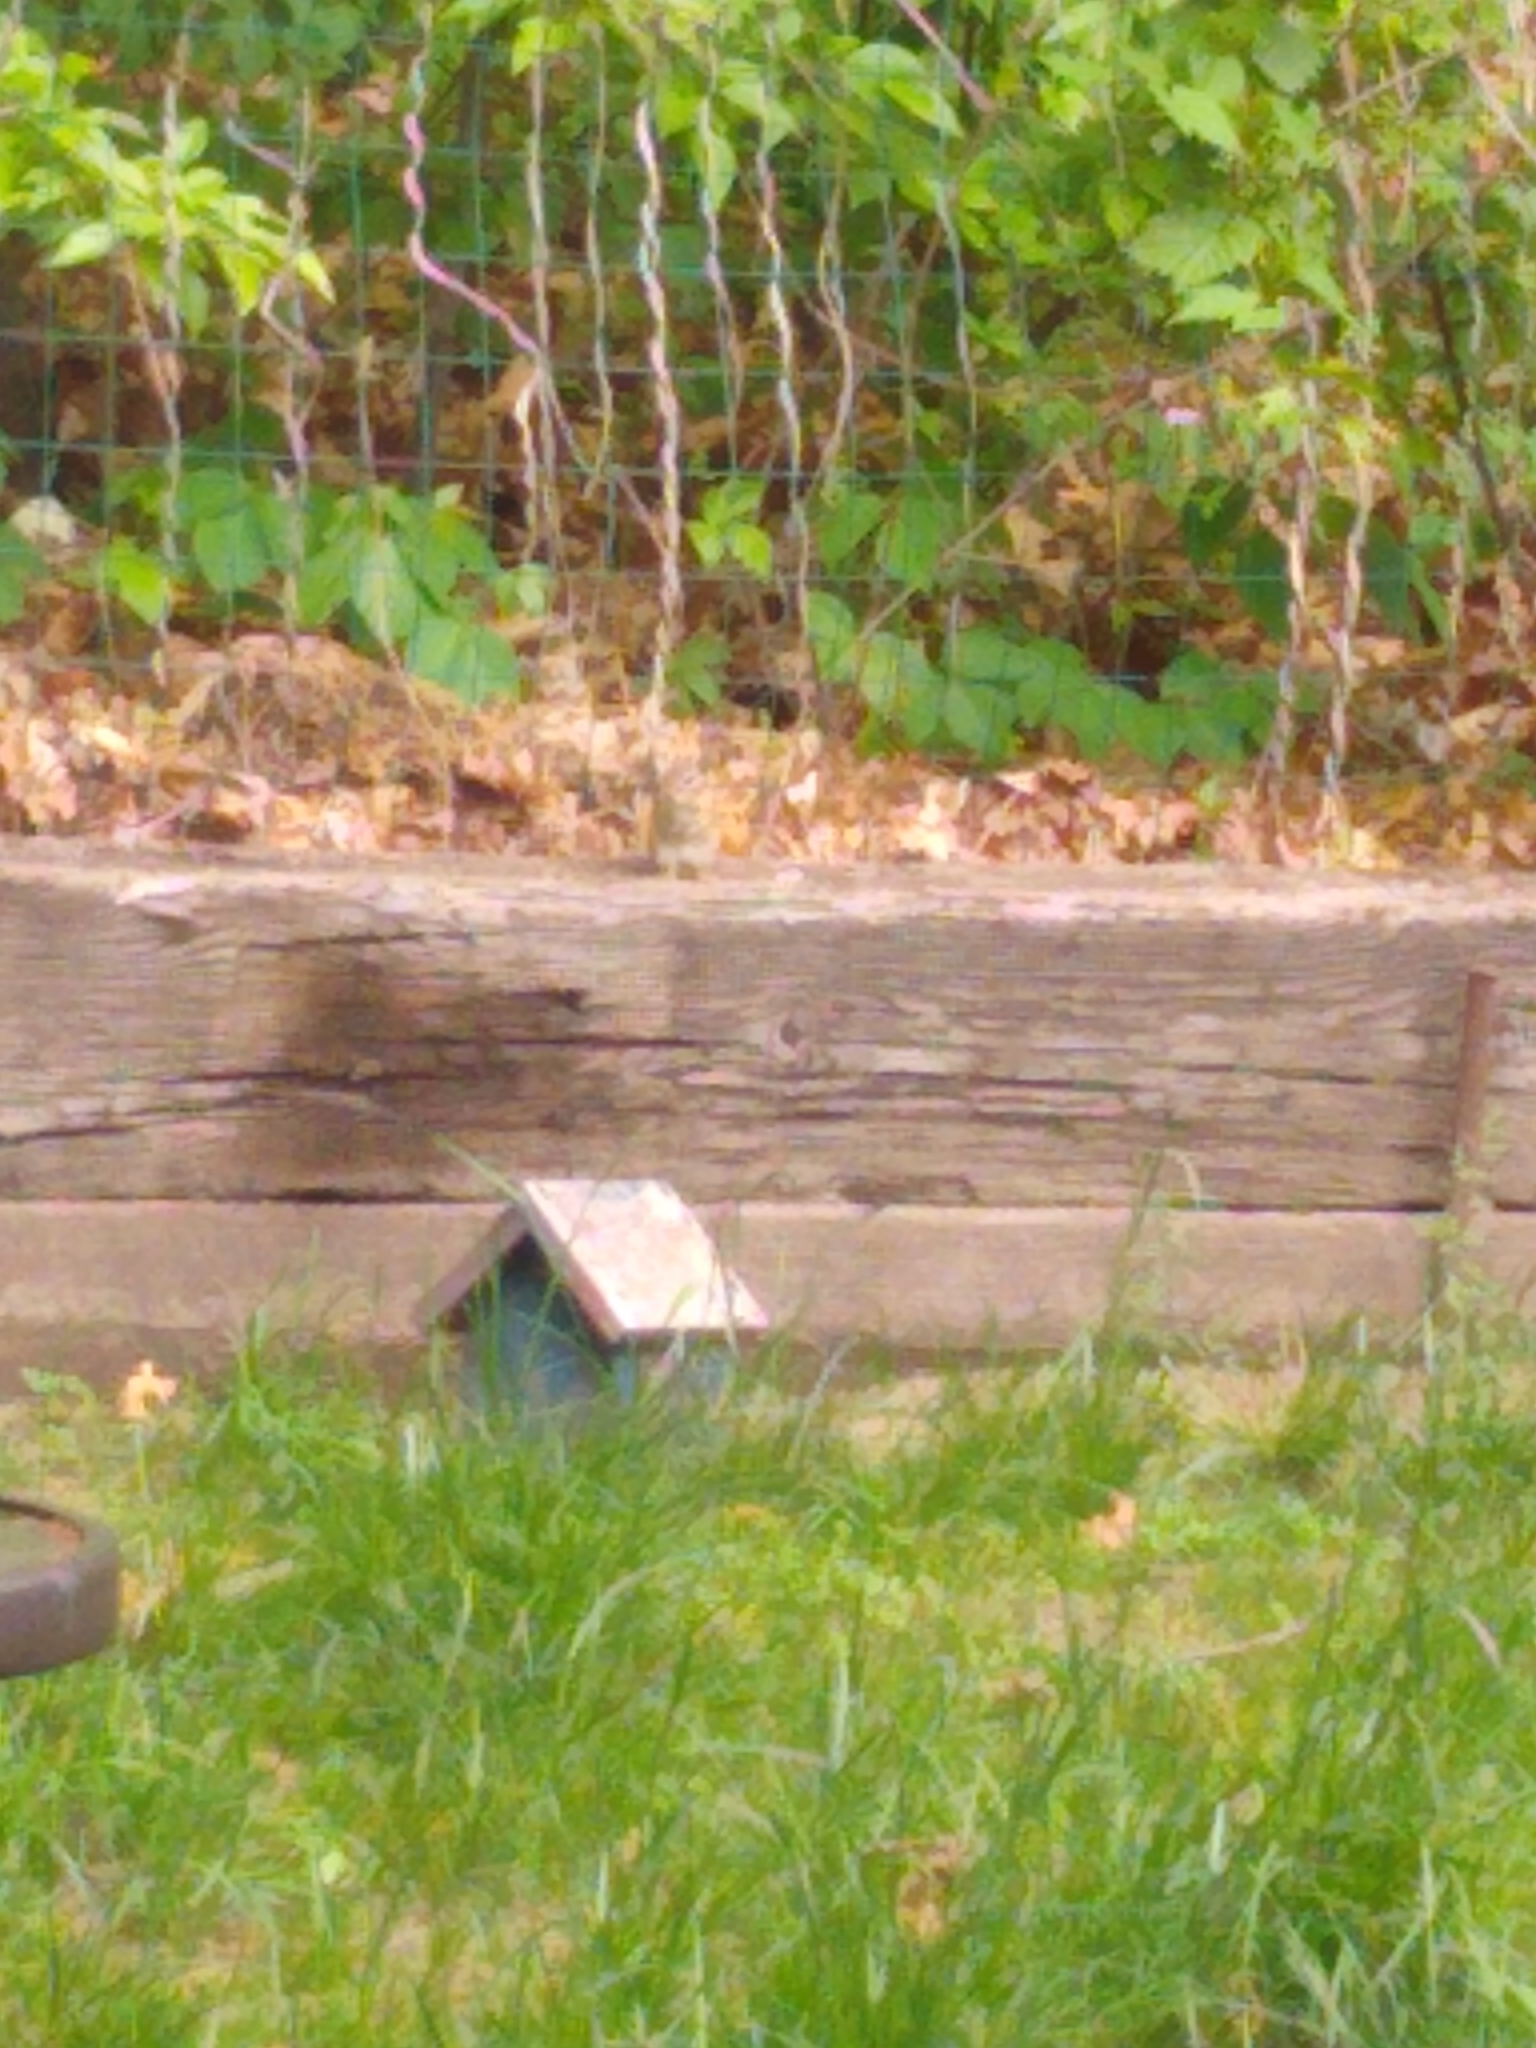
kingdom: Animalia
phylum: Chordata
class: Mammalia
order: Rodentia
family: Sciuridae
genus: Tamias
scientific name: Tamias striatus
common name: Eastern chipmunk
